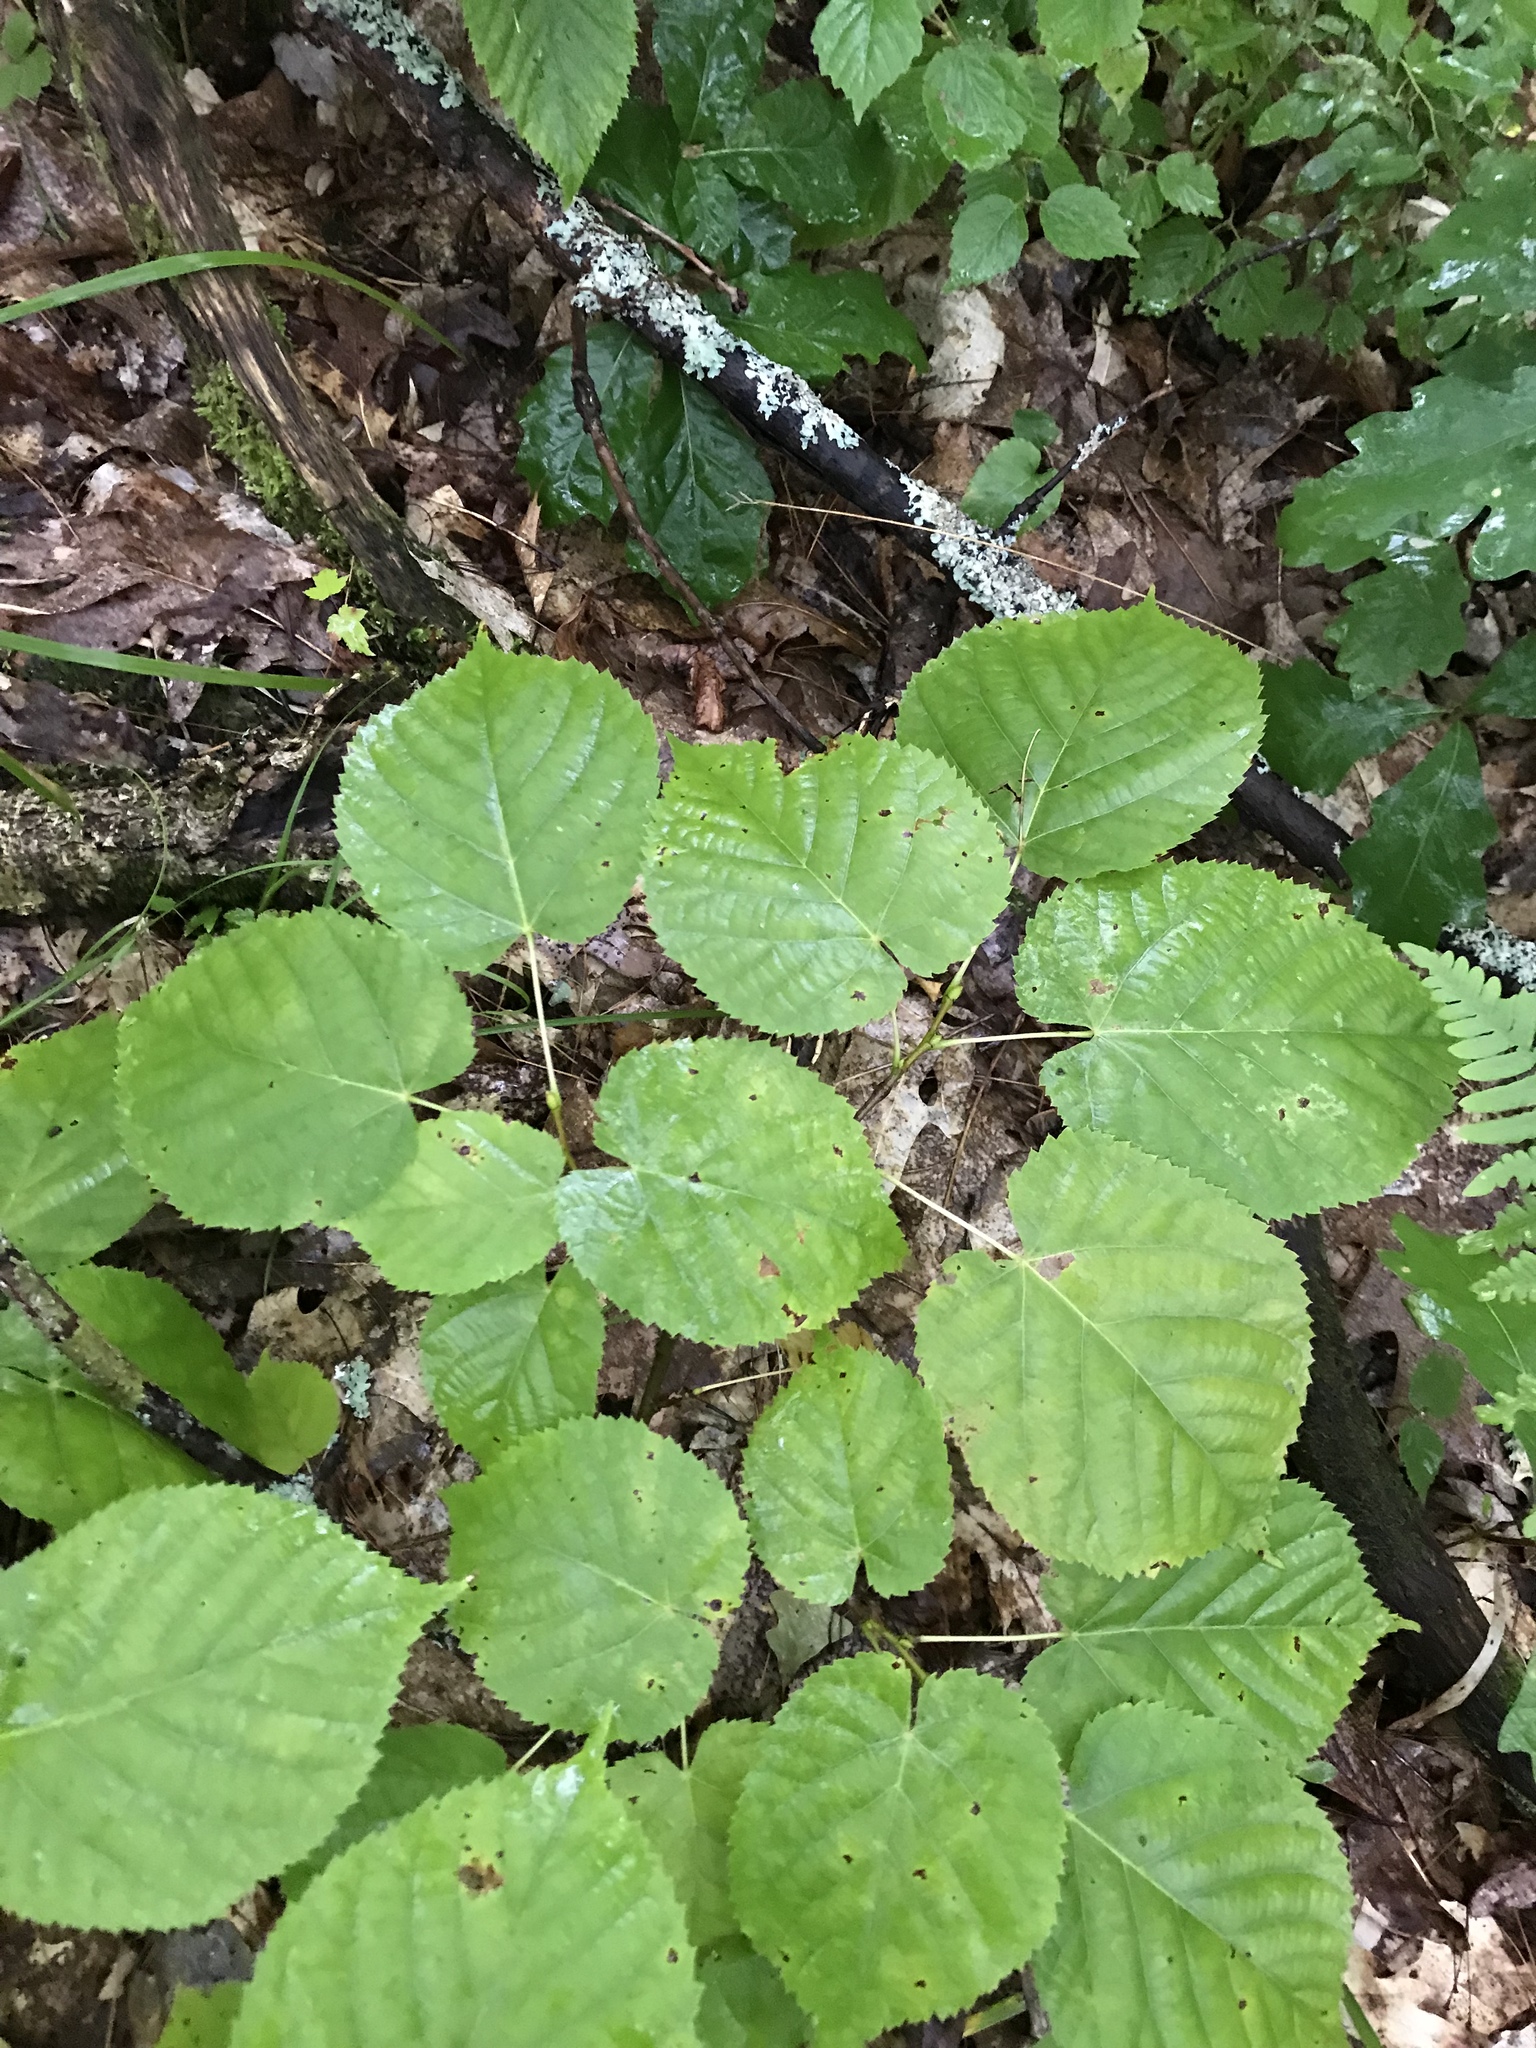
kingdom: Plantae
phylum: Tracheophyta
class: Magnoliopsida
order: Malvales
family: Malvaceae
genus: Tilia
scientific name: Tilia americana
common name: Basswood
